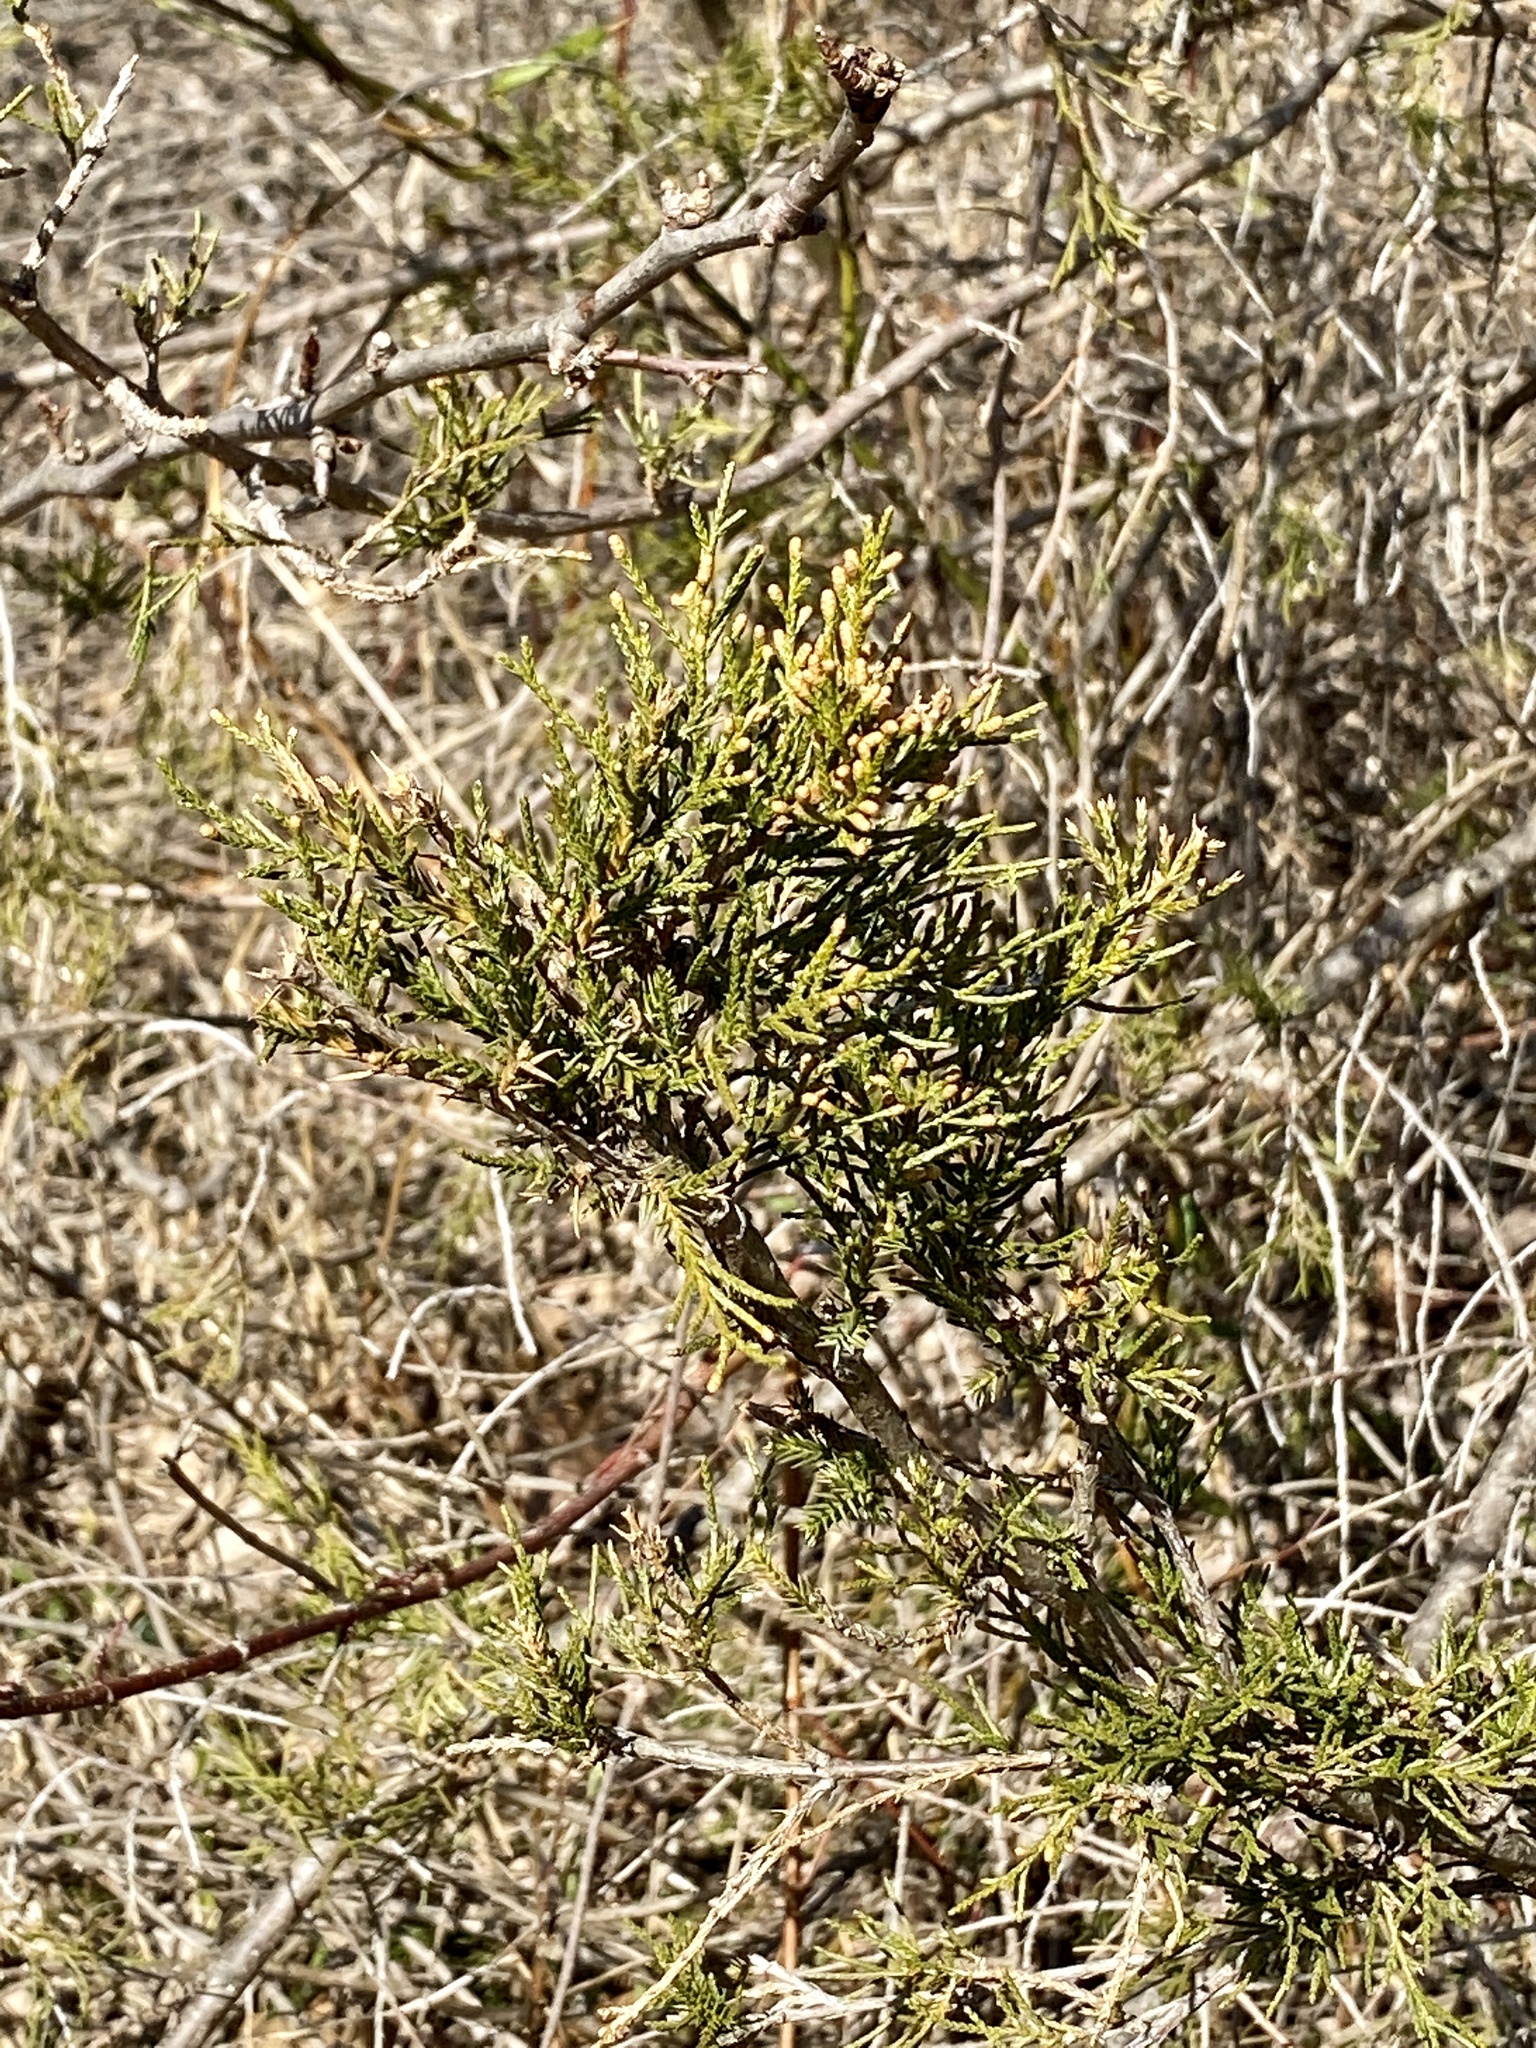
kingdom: Plantae
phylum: Tracheophyta
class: Pinopsida
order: Pinales
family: Cupressaceae
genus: Juniperus
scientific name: Juniperus virginiana
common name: Red juniper
